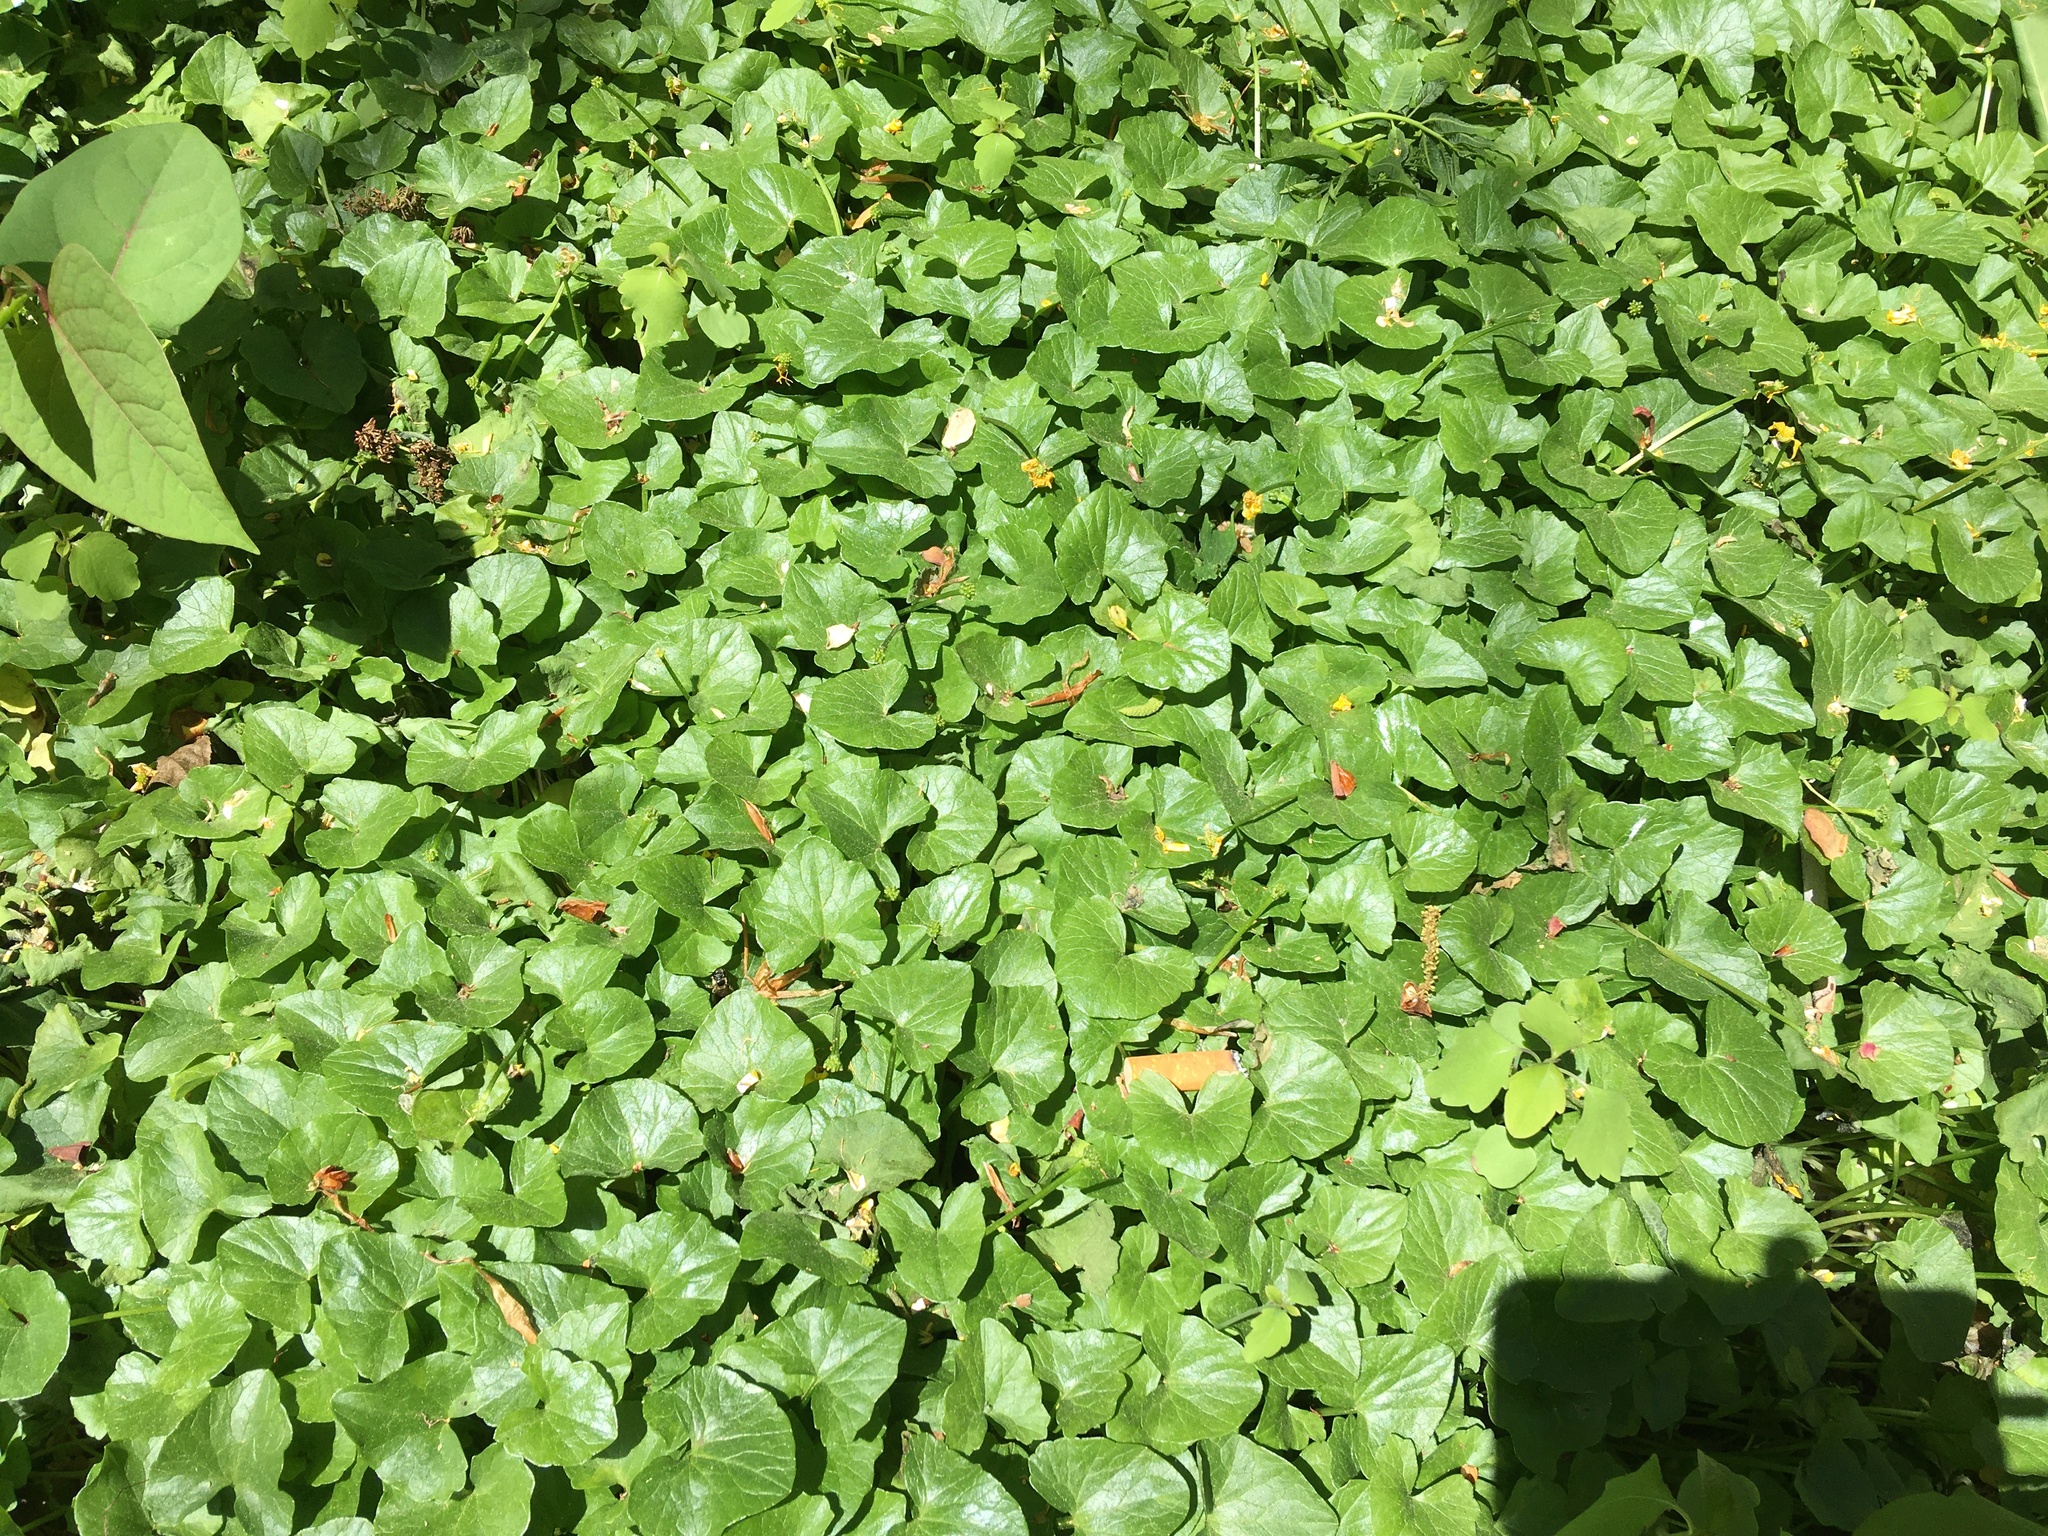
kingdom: Plantae
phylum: Tracheophyta
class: Magnoliopsida
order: Ranunculales
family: Ranunculaceae
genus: Ficaria
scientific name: Ficaria verna
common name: Lesser celandine
